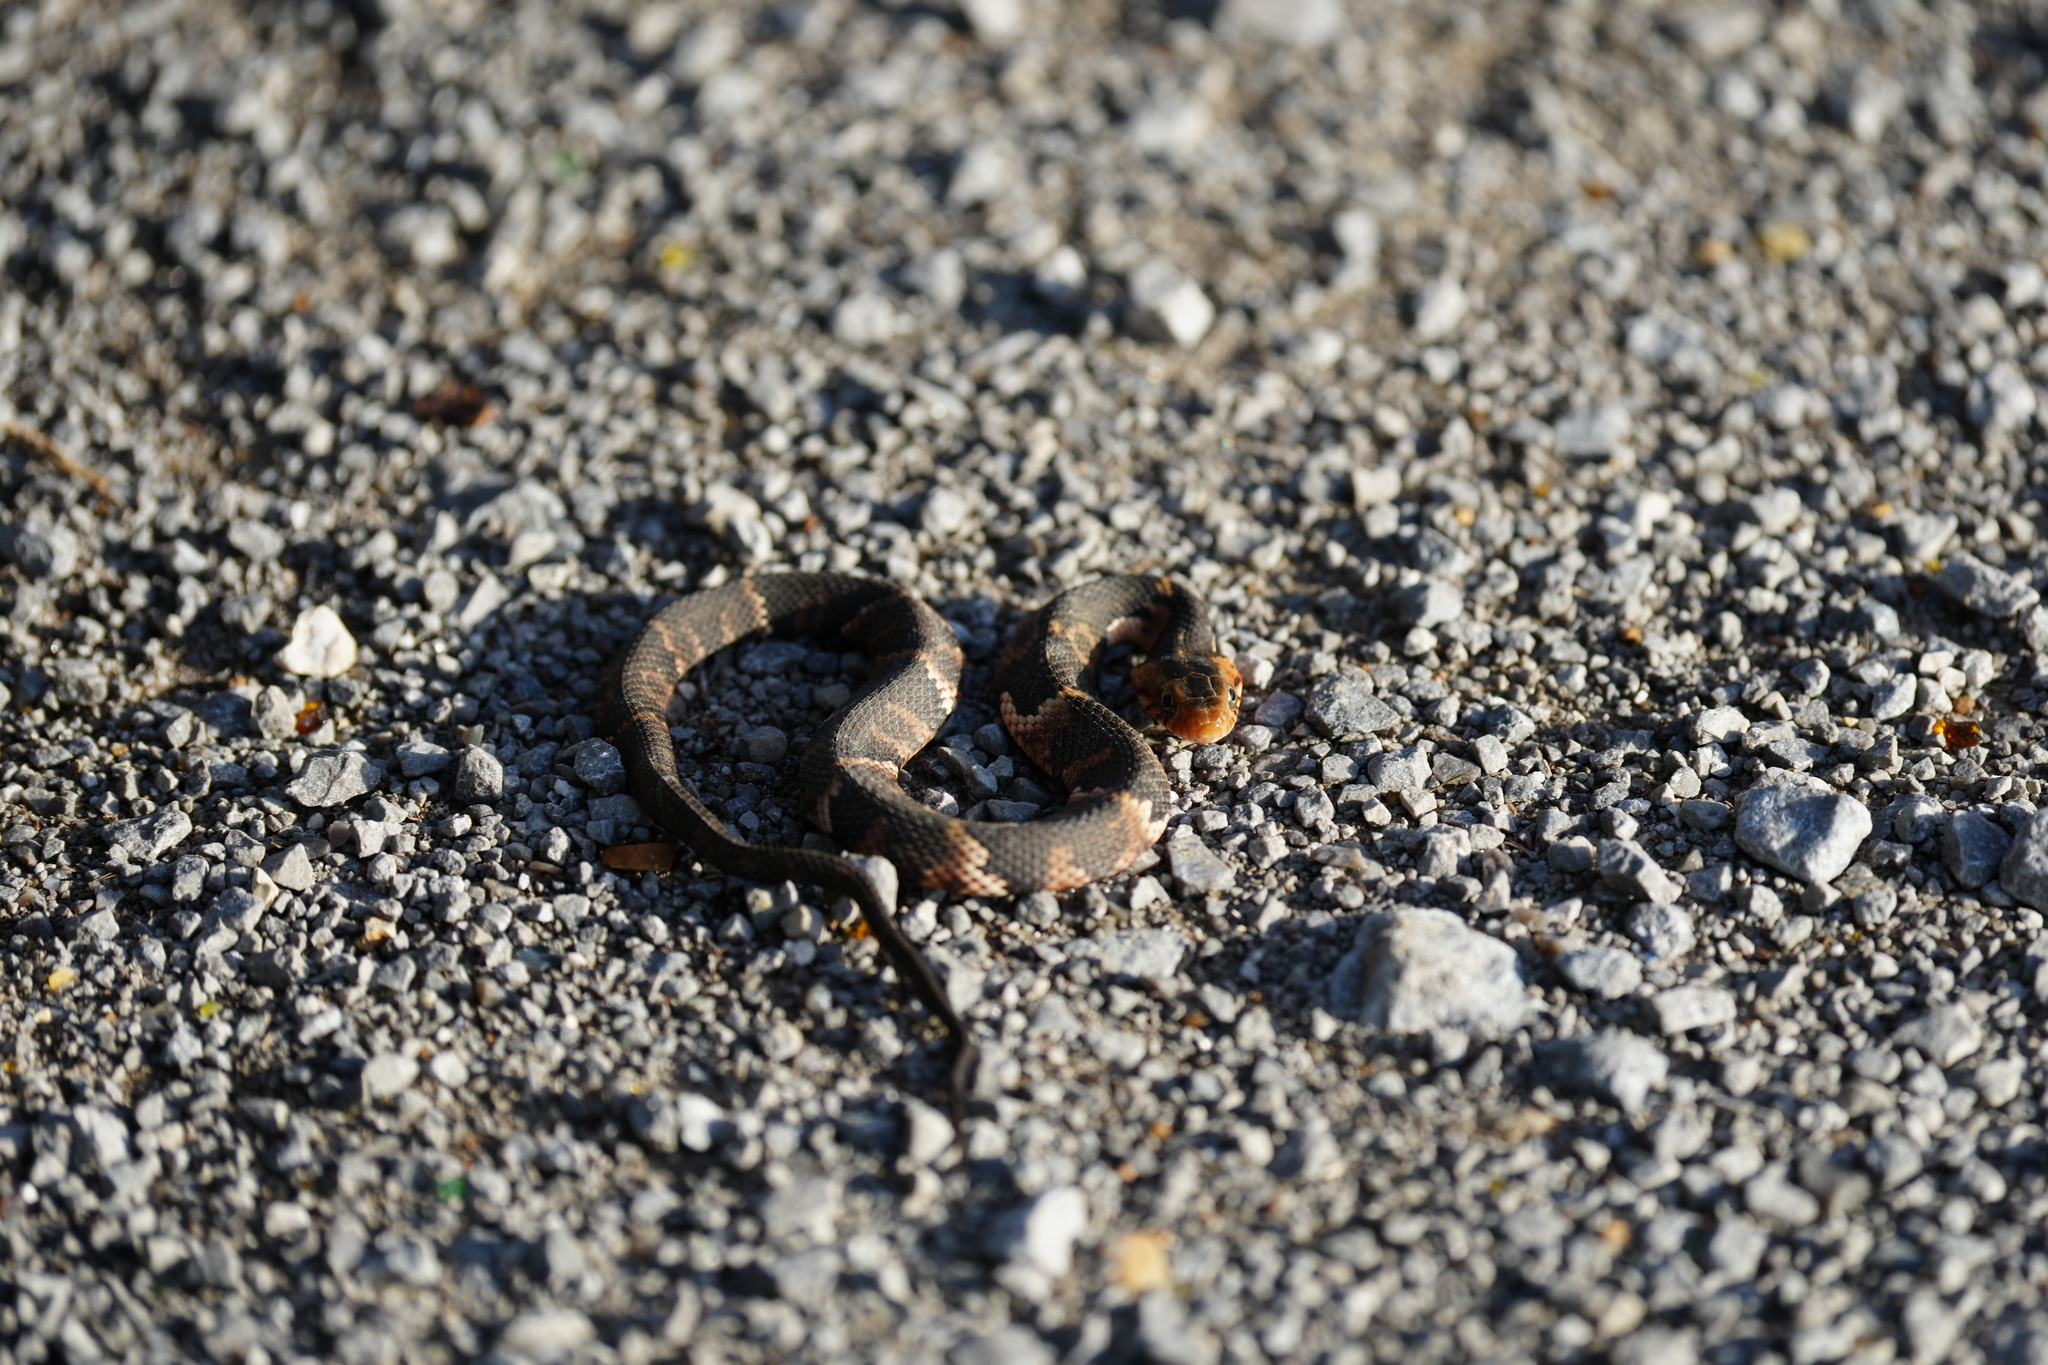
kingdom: Animalia
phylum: Chordata
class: Squamata
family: Colubridae
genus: Nerodia
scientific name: Nerodia fasciata
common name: Southern water snake
